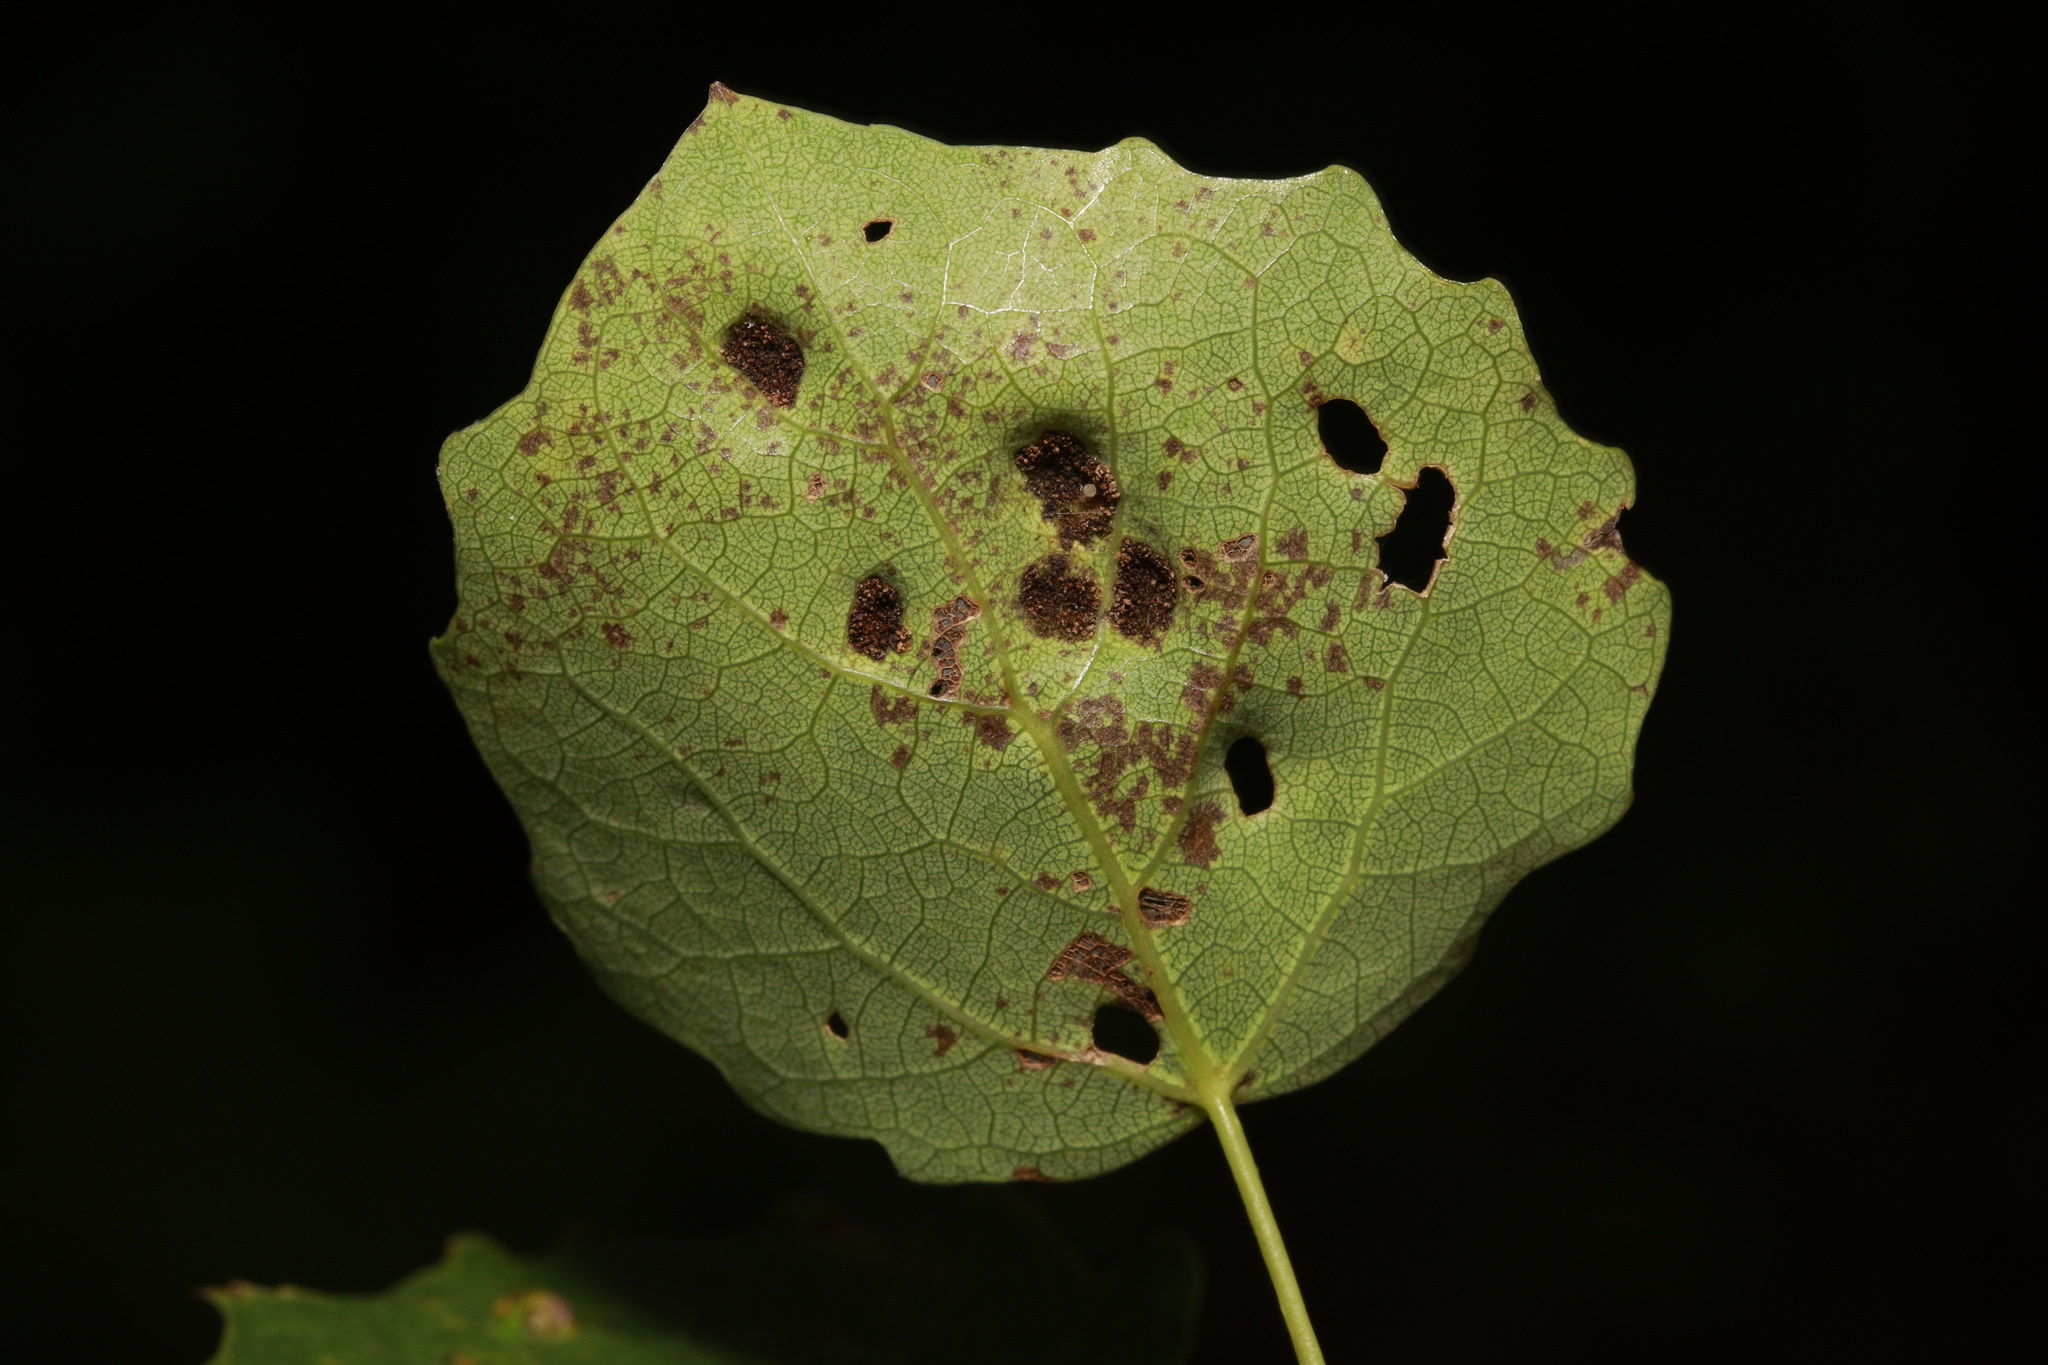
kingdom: Animalia
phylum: Arthropoda
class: Arachnida
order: Trombidiformes
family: Eriophyidae
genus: Phyllocoptes
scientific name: Phyllocoptes populi
